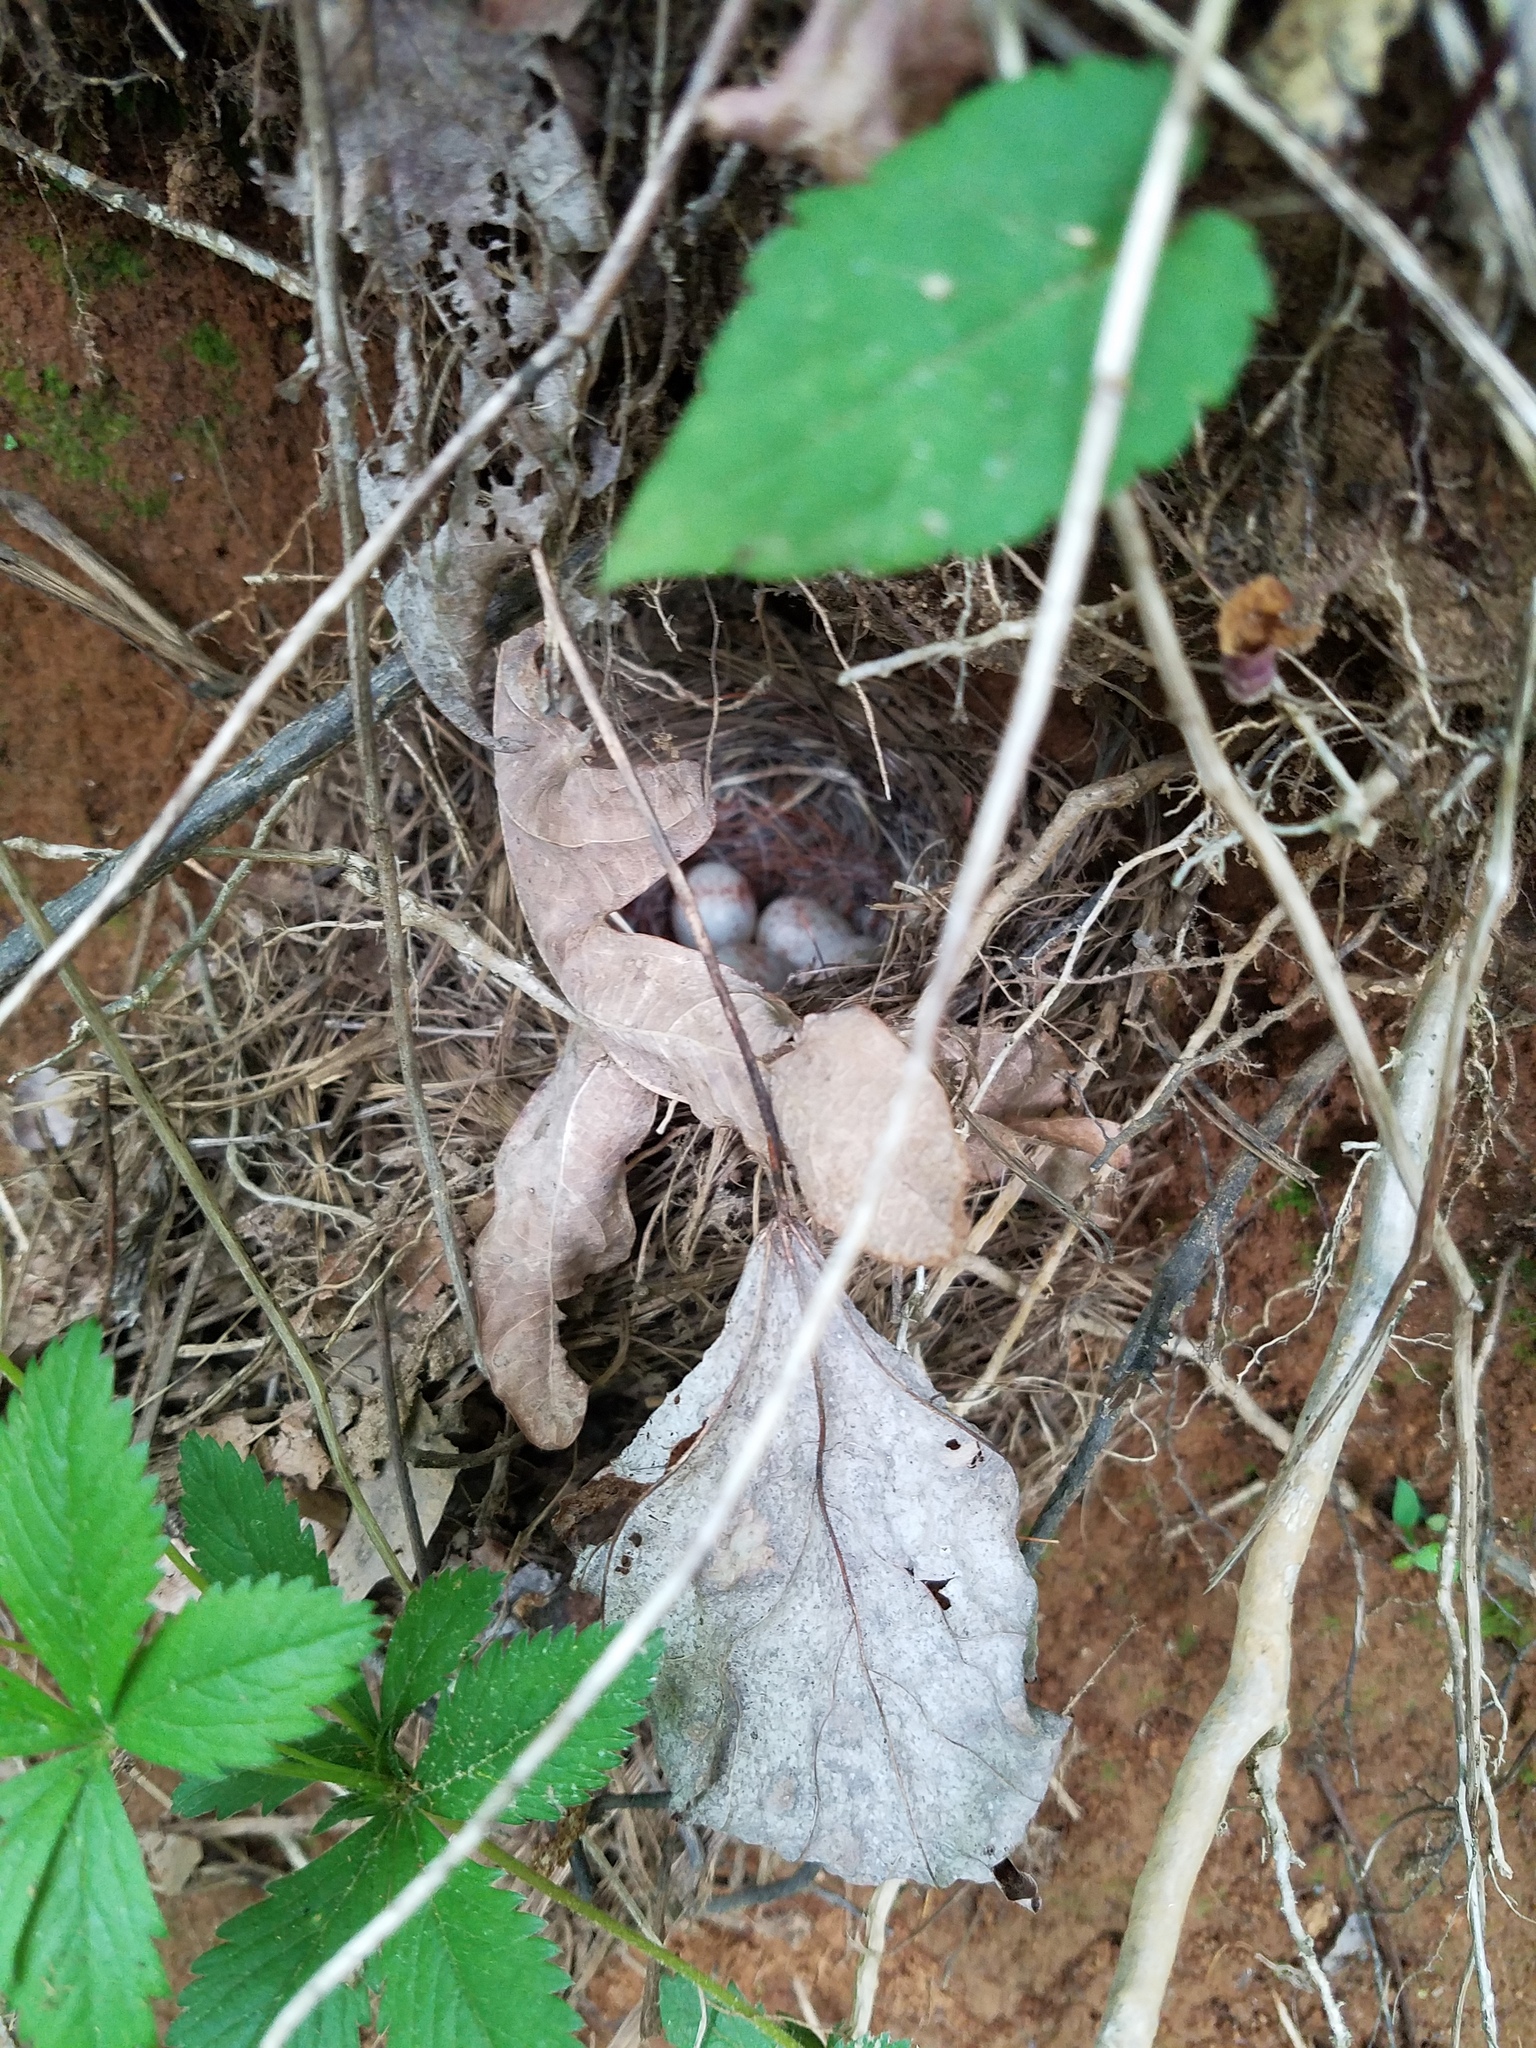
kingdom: Animalia
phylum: Chordata
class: Aves
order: Passeriformes
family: Passerellidae
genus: Junco
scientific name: Junco hyemalis
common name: Dark-eyed junco
